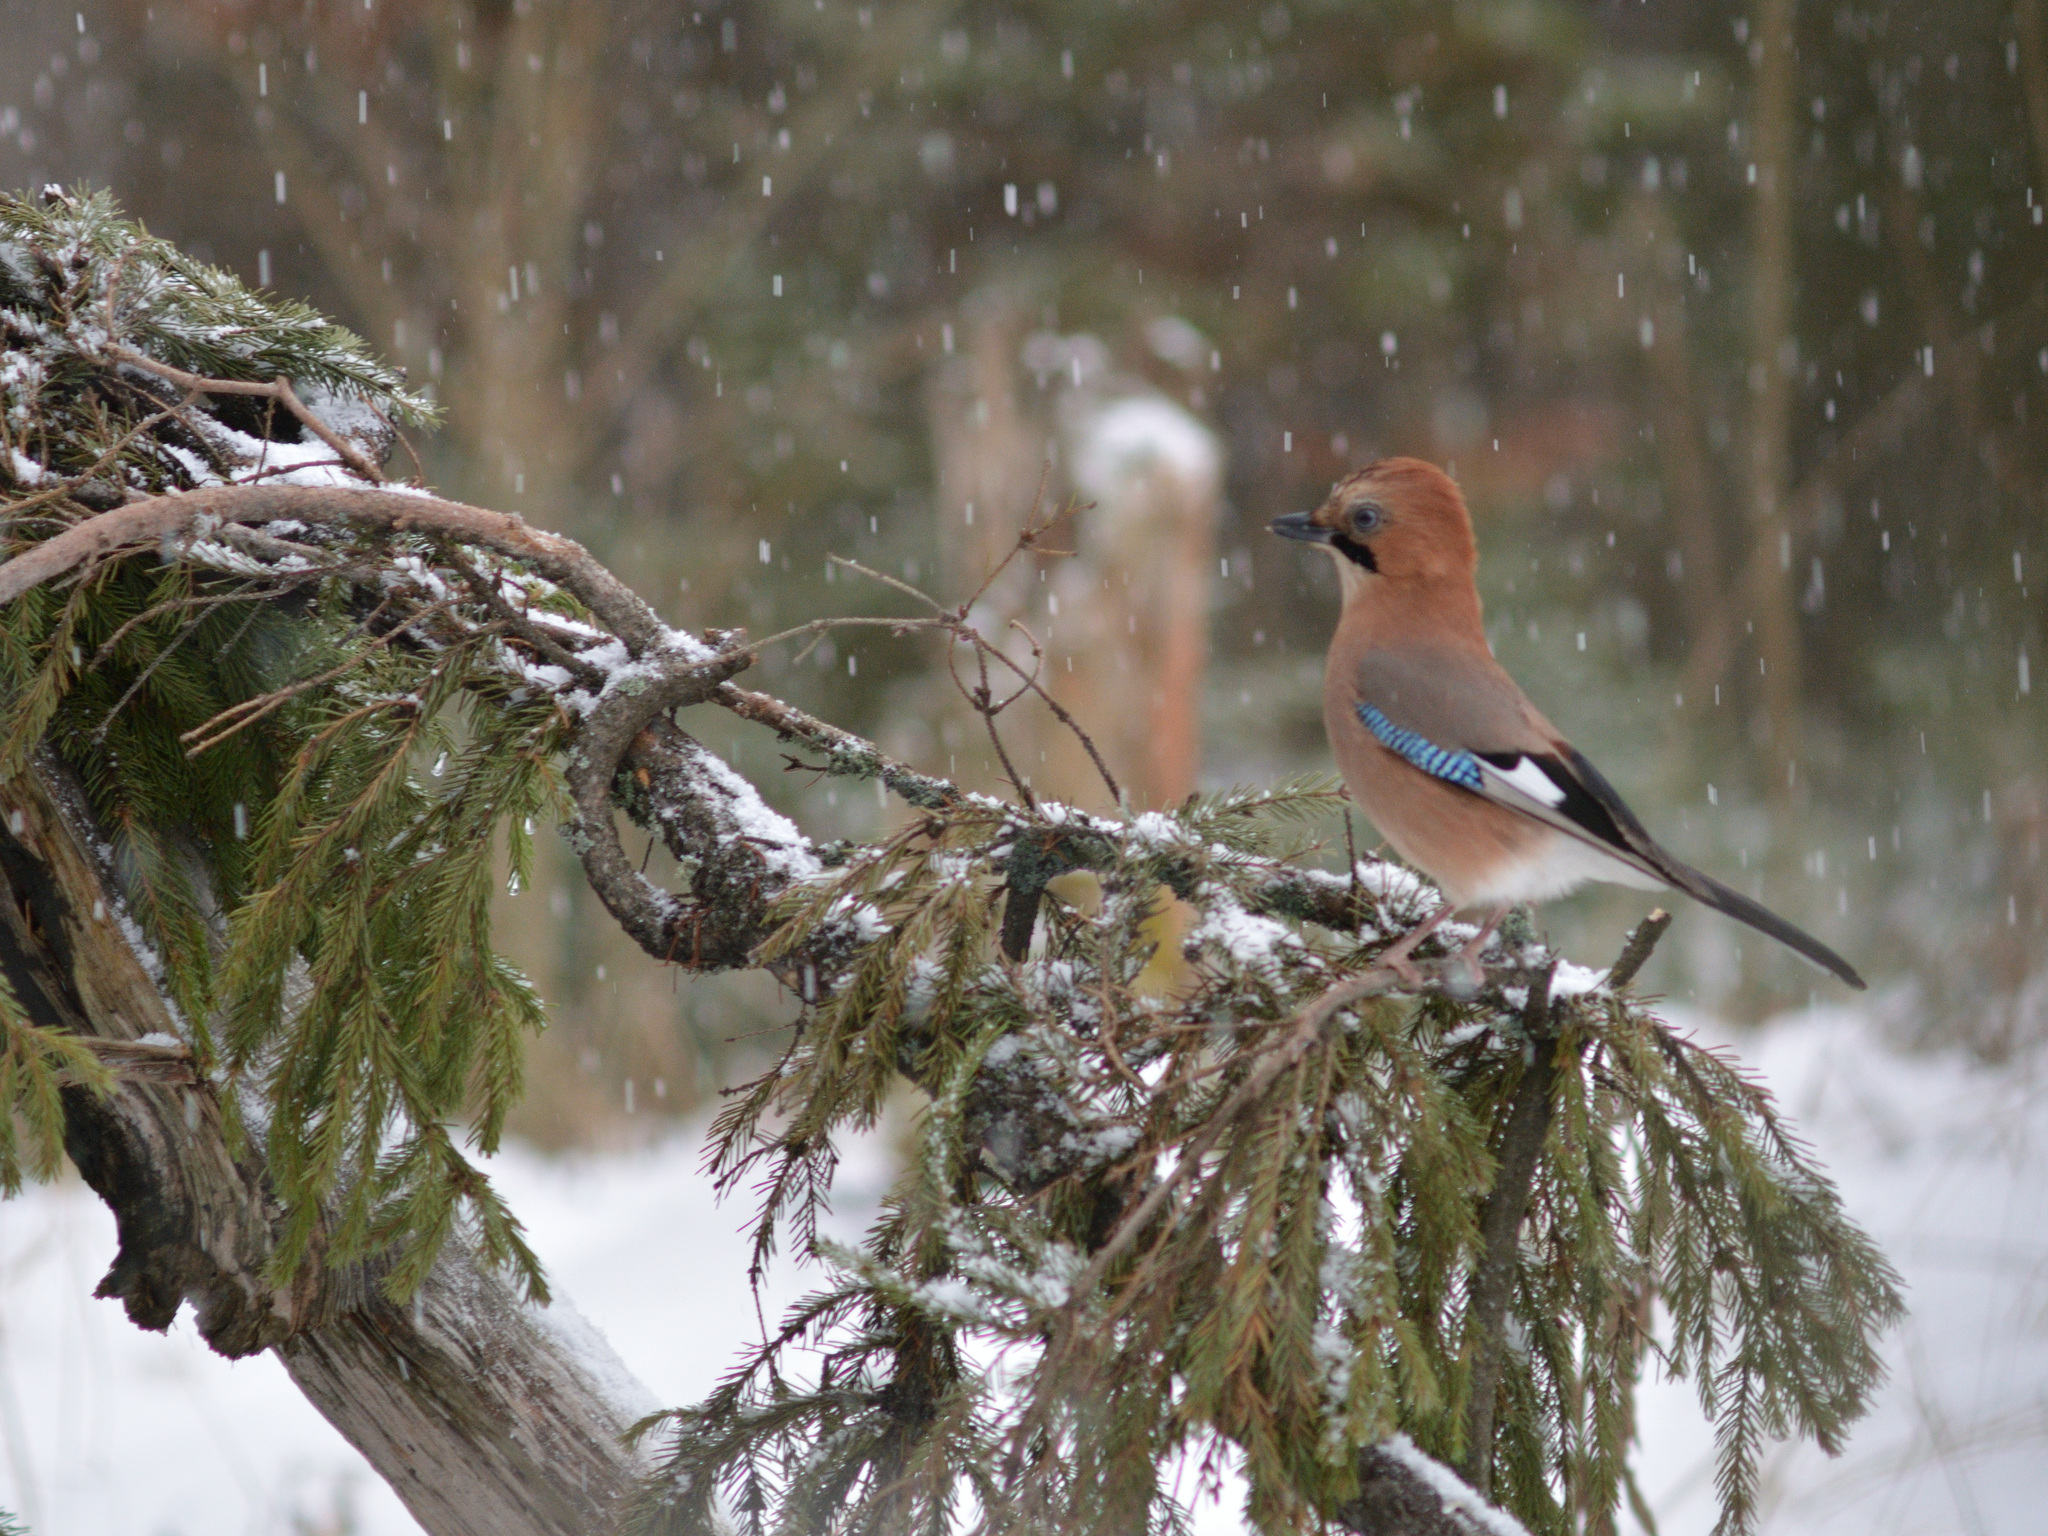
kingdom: Animalia
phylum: Chordata
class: Aves
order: Passeriformes
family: Corvidae
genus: Garrulus
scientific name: Garrulus glandarius
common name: Eurasian jay
